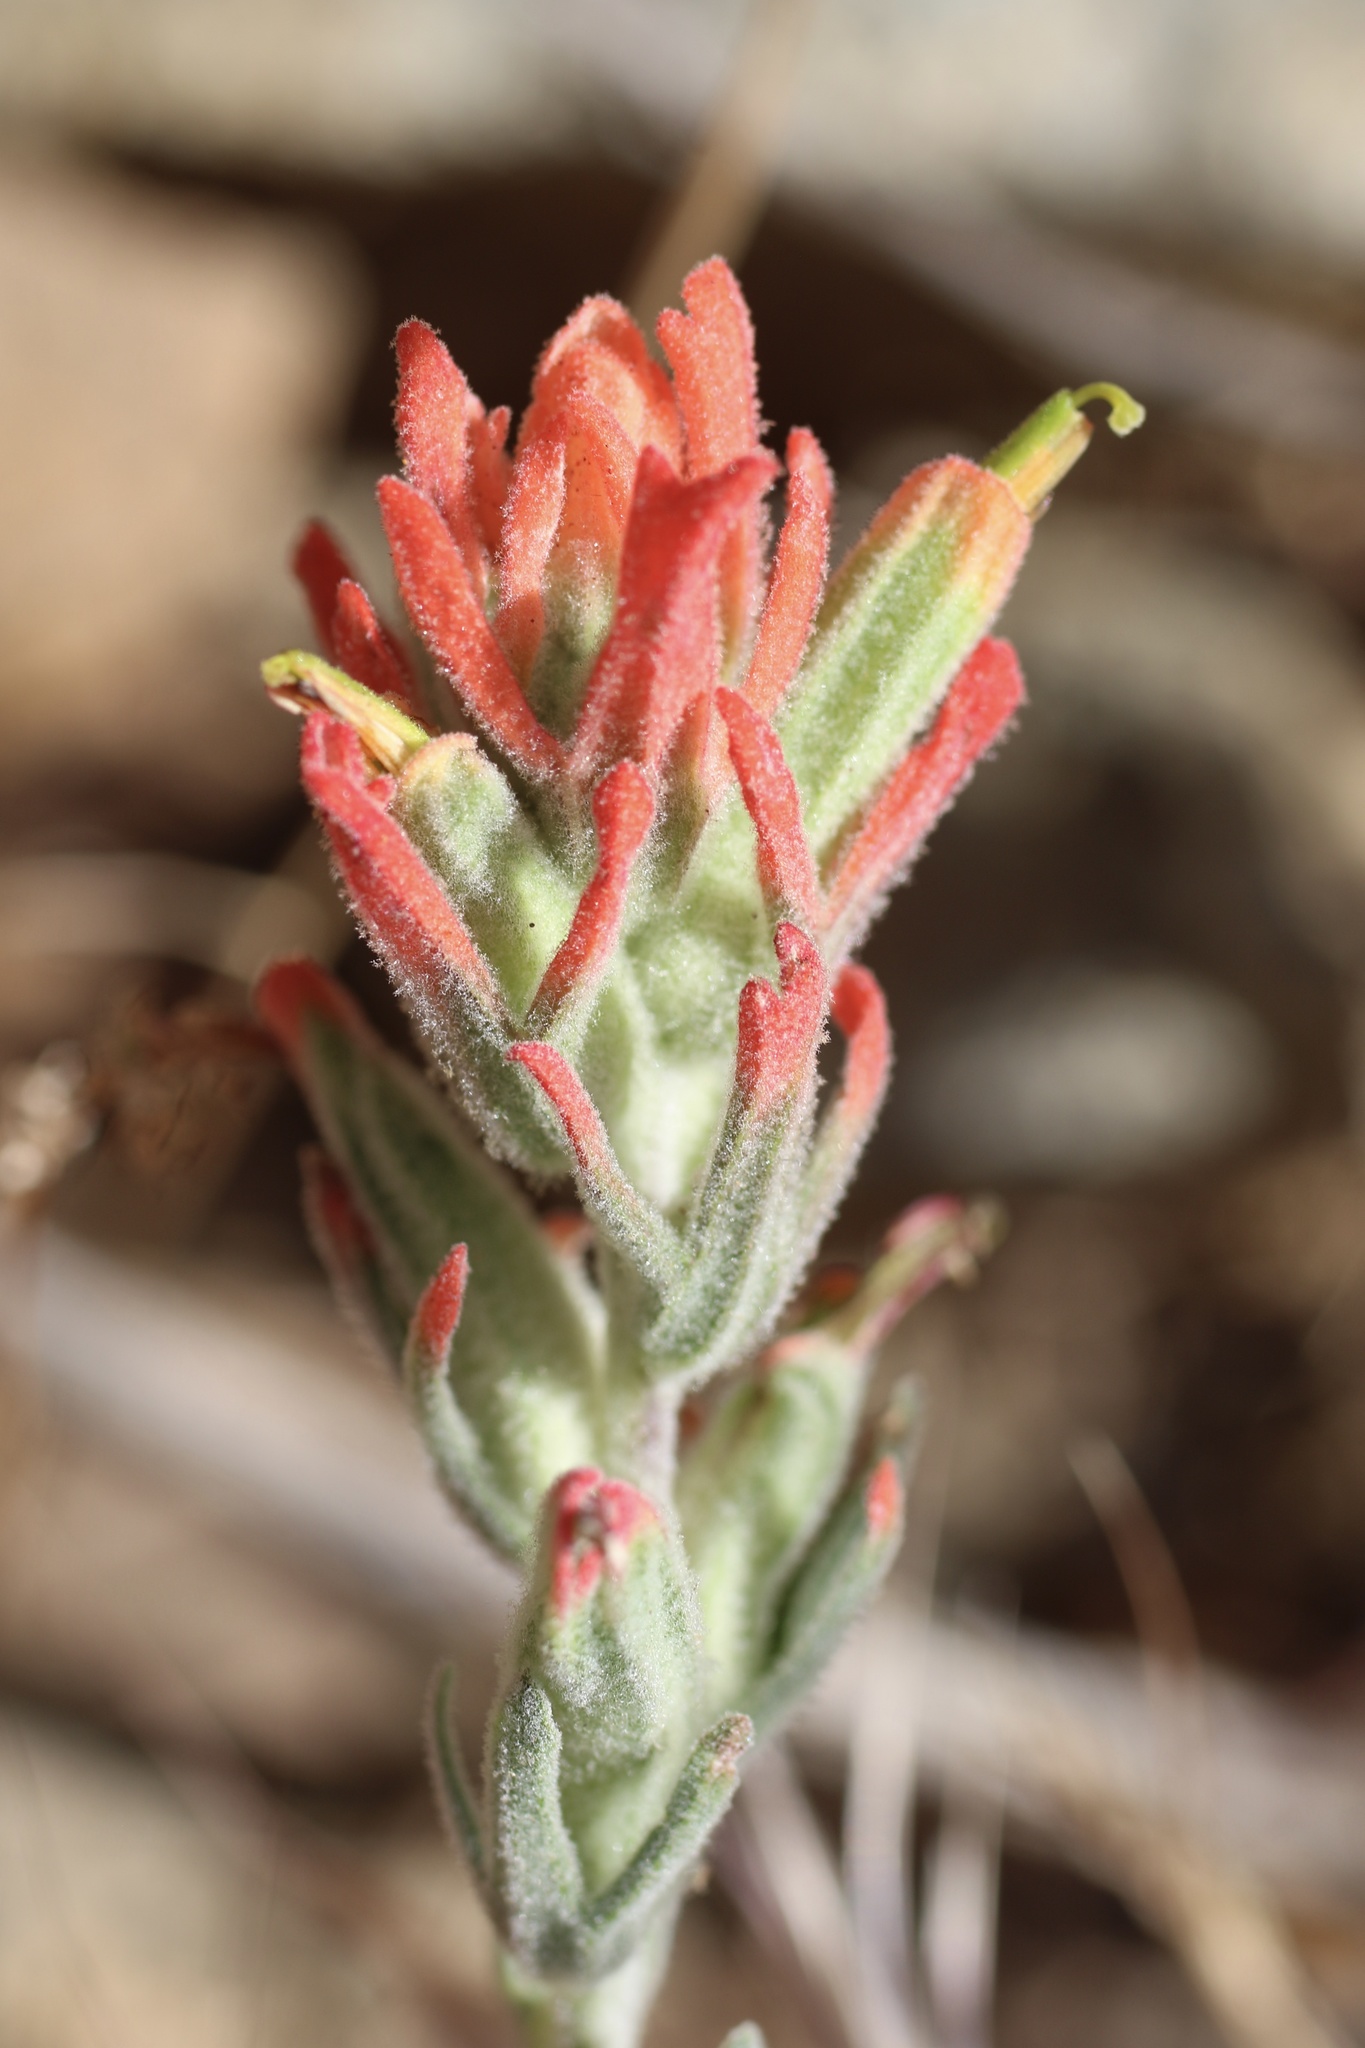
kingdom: Plantae
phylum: Tracheophyta
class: Magnoliopsida
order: Lamiales
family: Orobanchaceae
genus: Castilleja
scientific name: Castilleja foliolosa
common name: Woolly indian paintbrush
